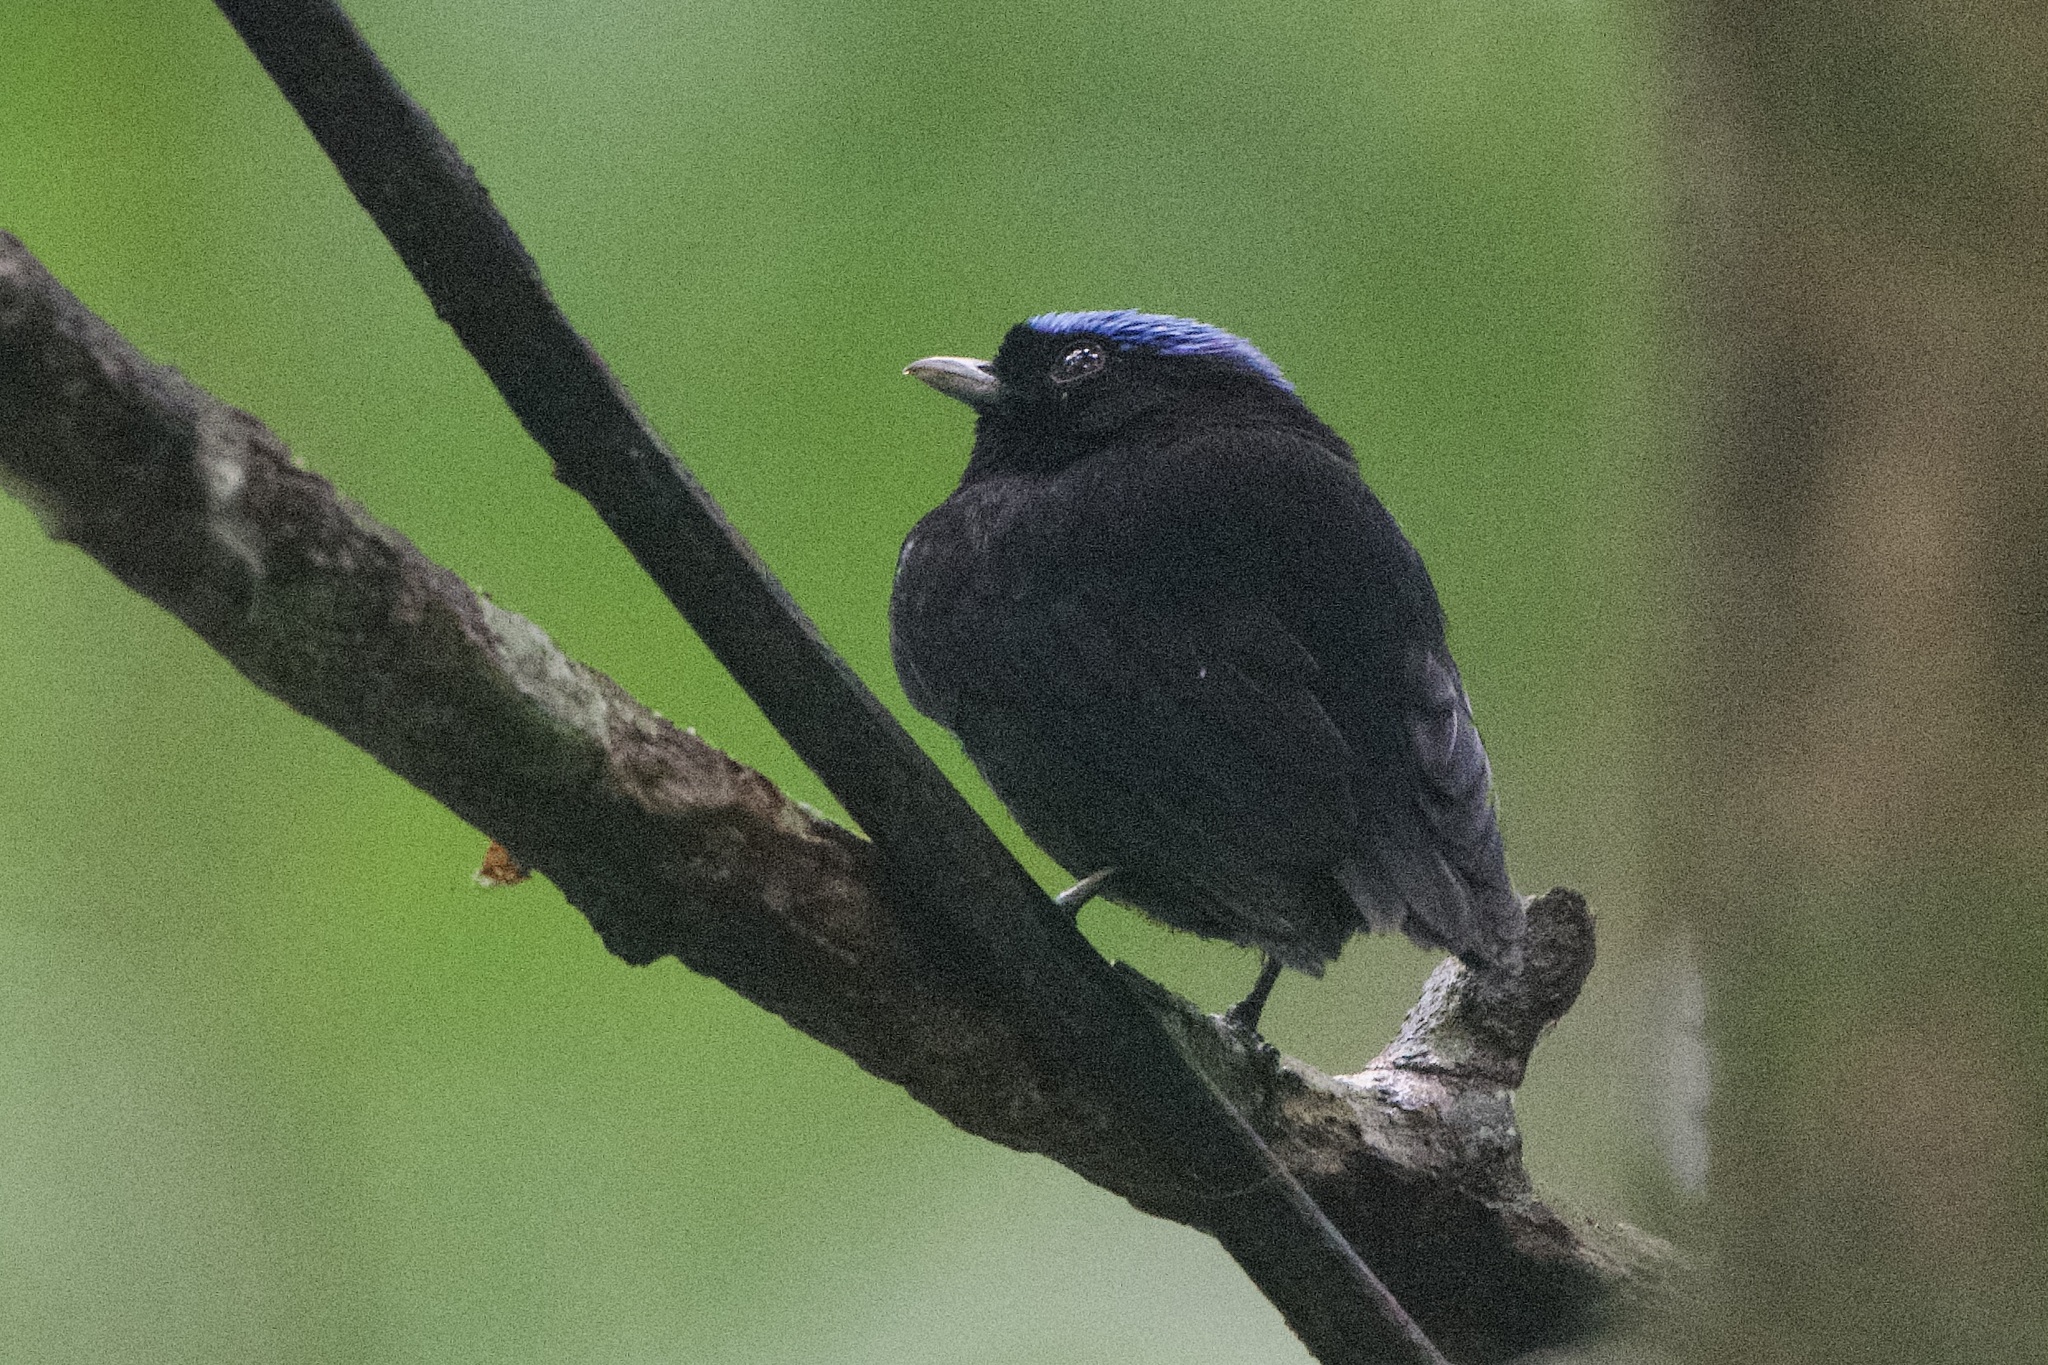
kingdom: Animalia
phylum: Chordata
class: Aves
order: Passeriformes
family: Pipridae
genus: Lepidothrix
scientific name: Lepidothrix coronata
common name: Blue-crowned manakin
